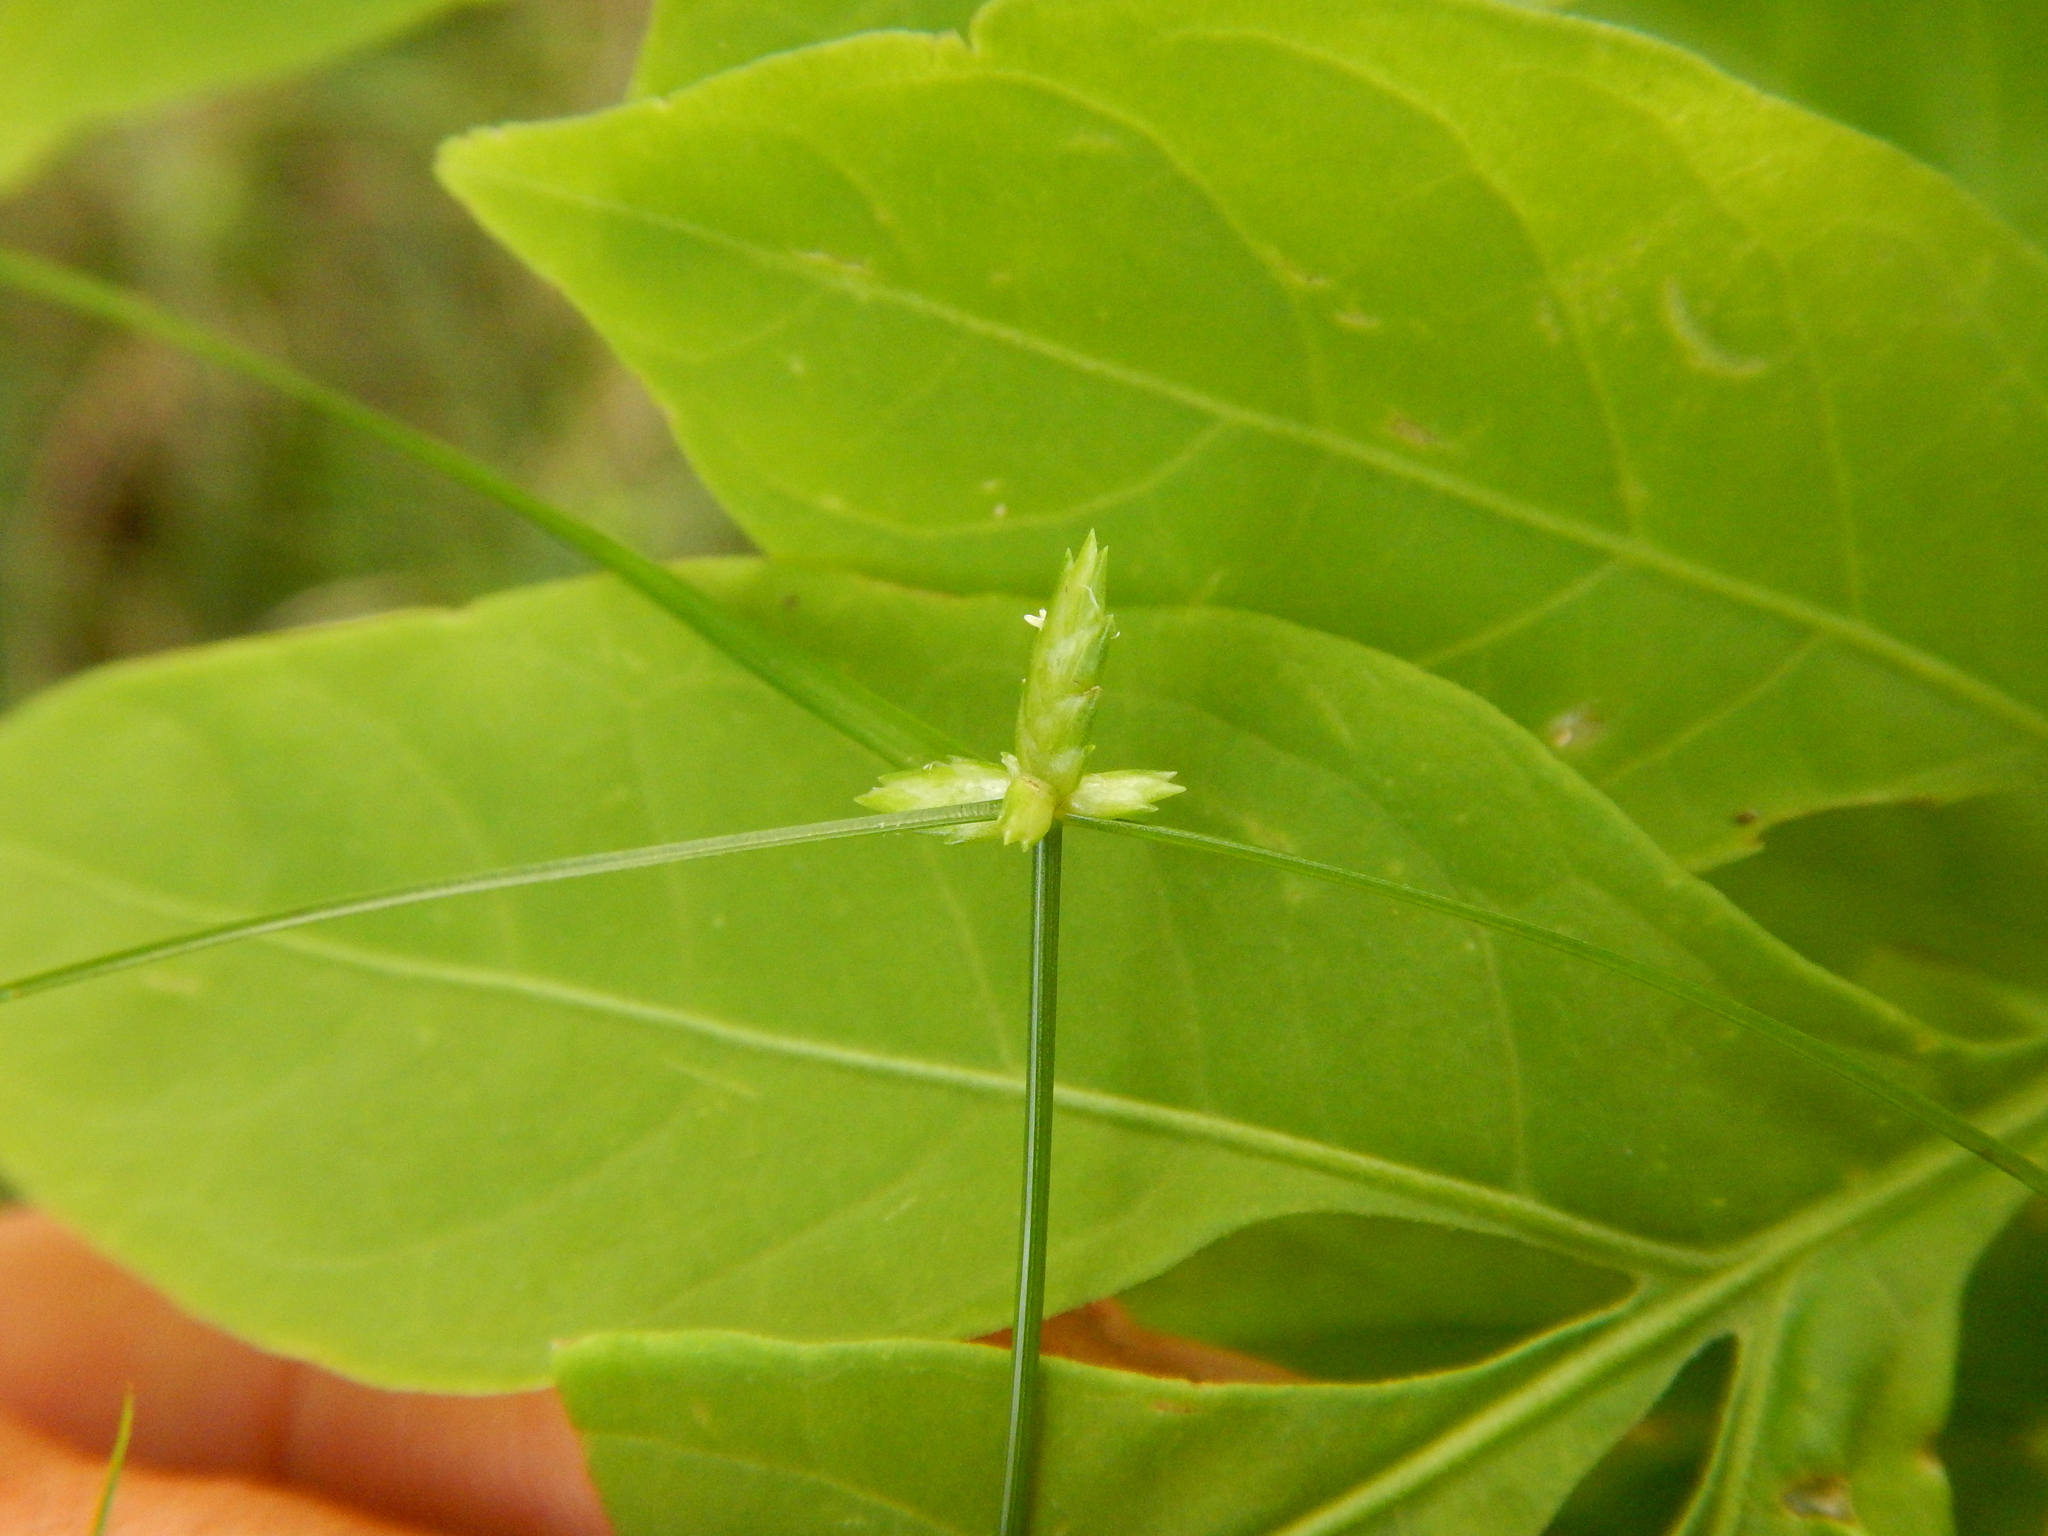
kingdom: Plantae
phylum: Tracheophyta
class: Liliopsida
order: Poales
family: Cyperaceae
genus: Cyperus
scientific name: Cyperus gracilis
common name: Slimjim flatsedge
